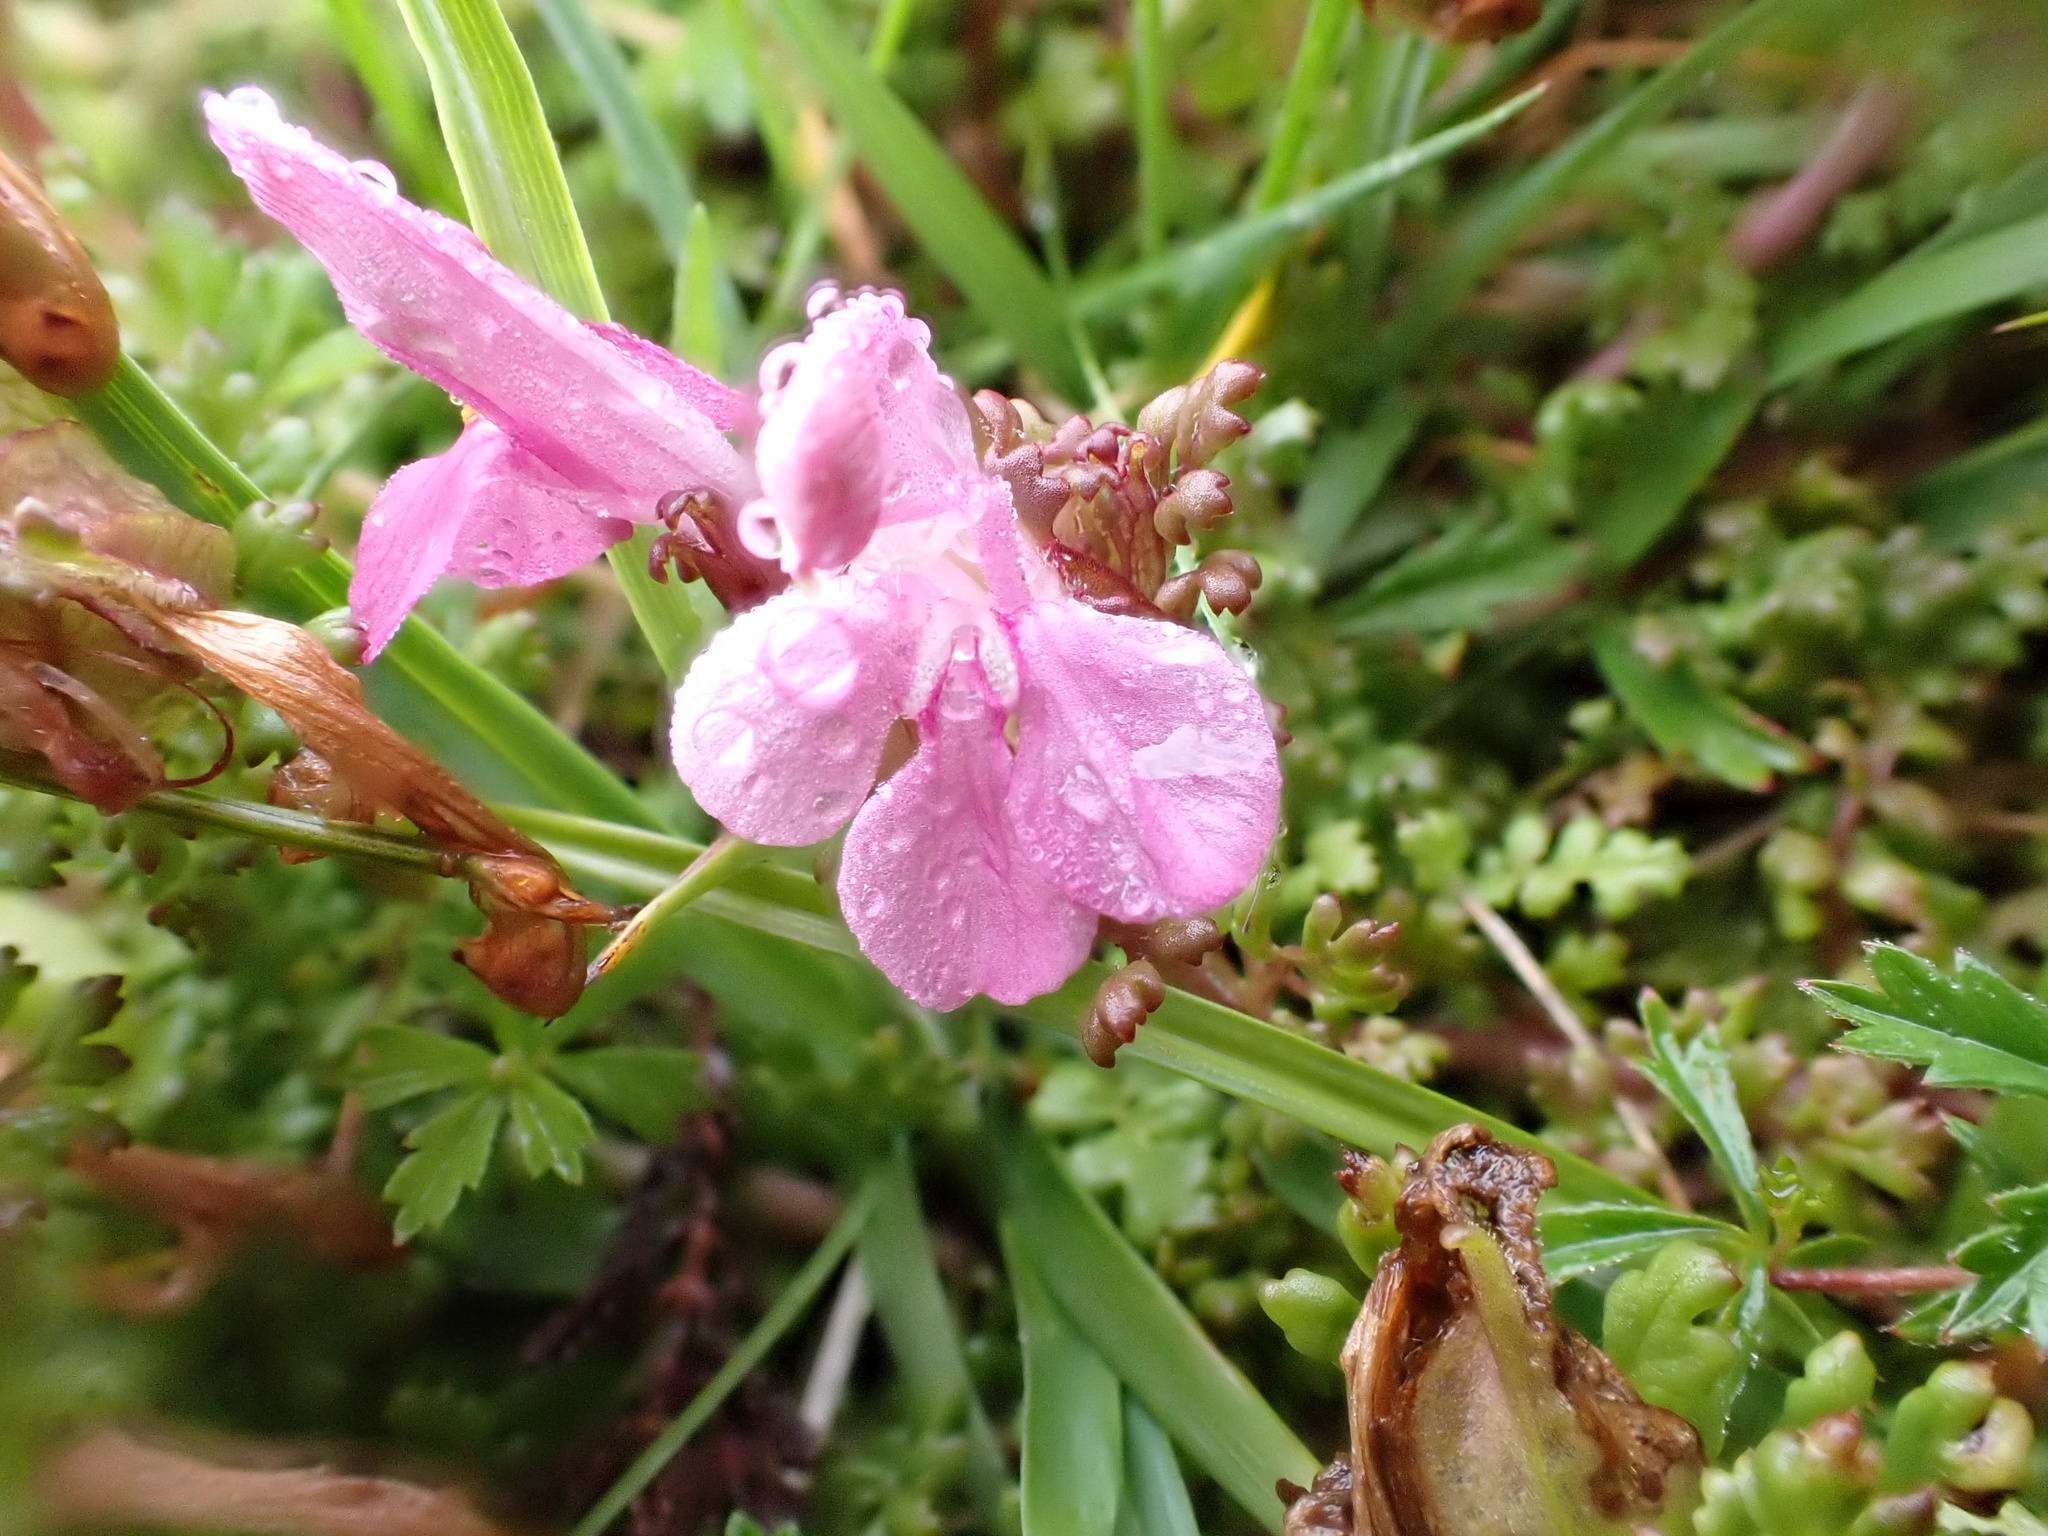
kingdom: Plantae
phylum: Tracheophyta
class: Magnoliopsida
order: Lamiales
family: Orobanchaceae
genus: Pedicularis
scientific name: Pedicularis sylvatica
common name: Lousewort
